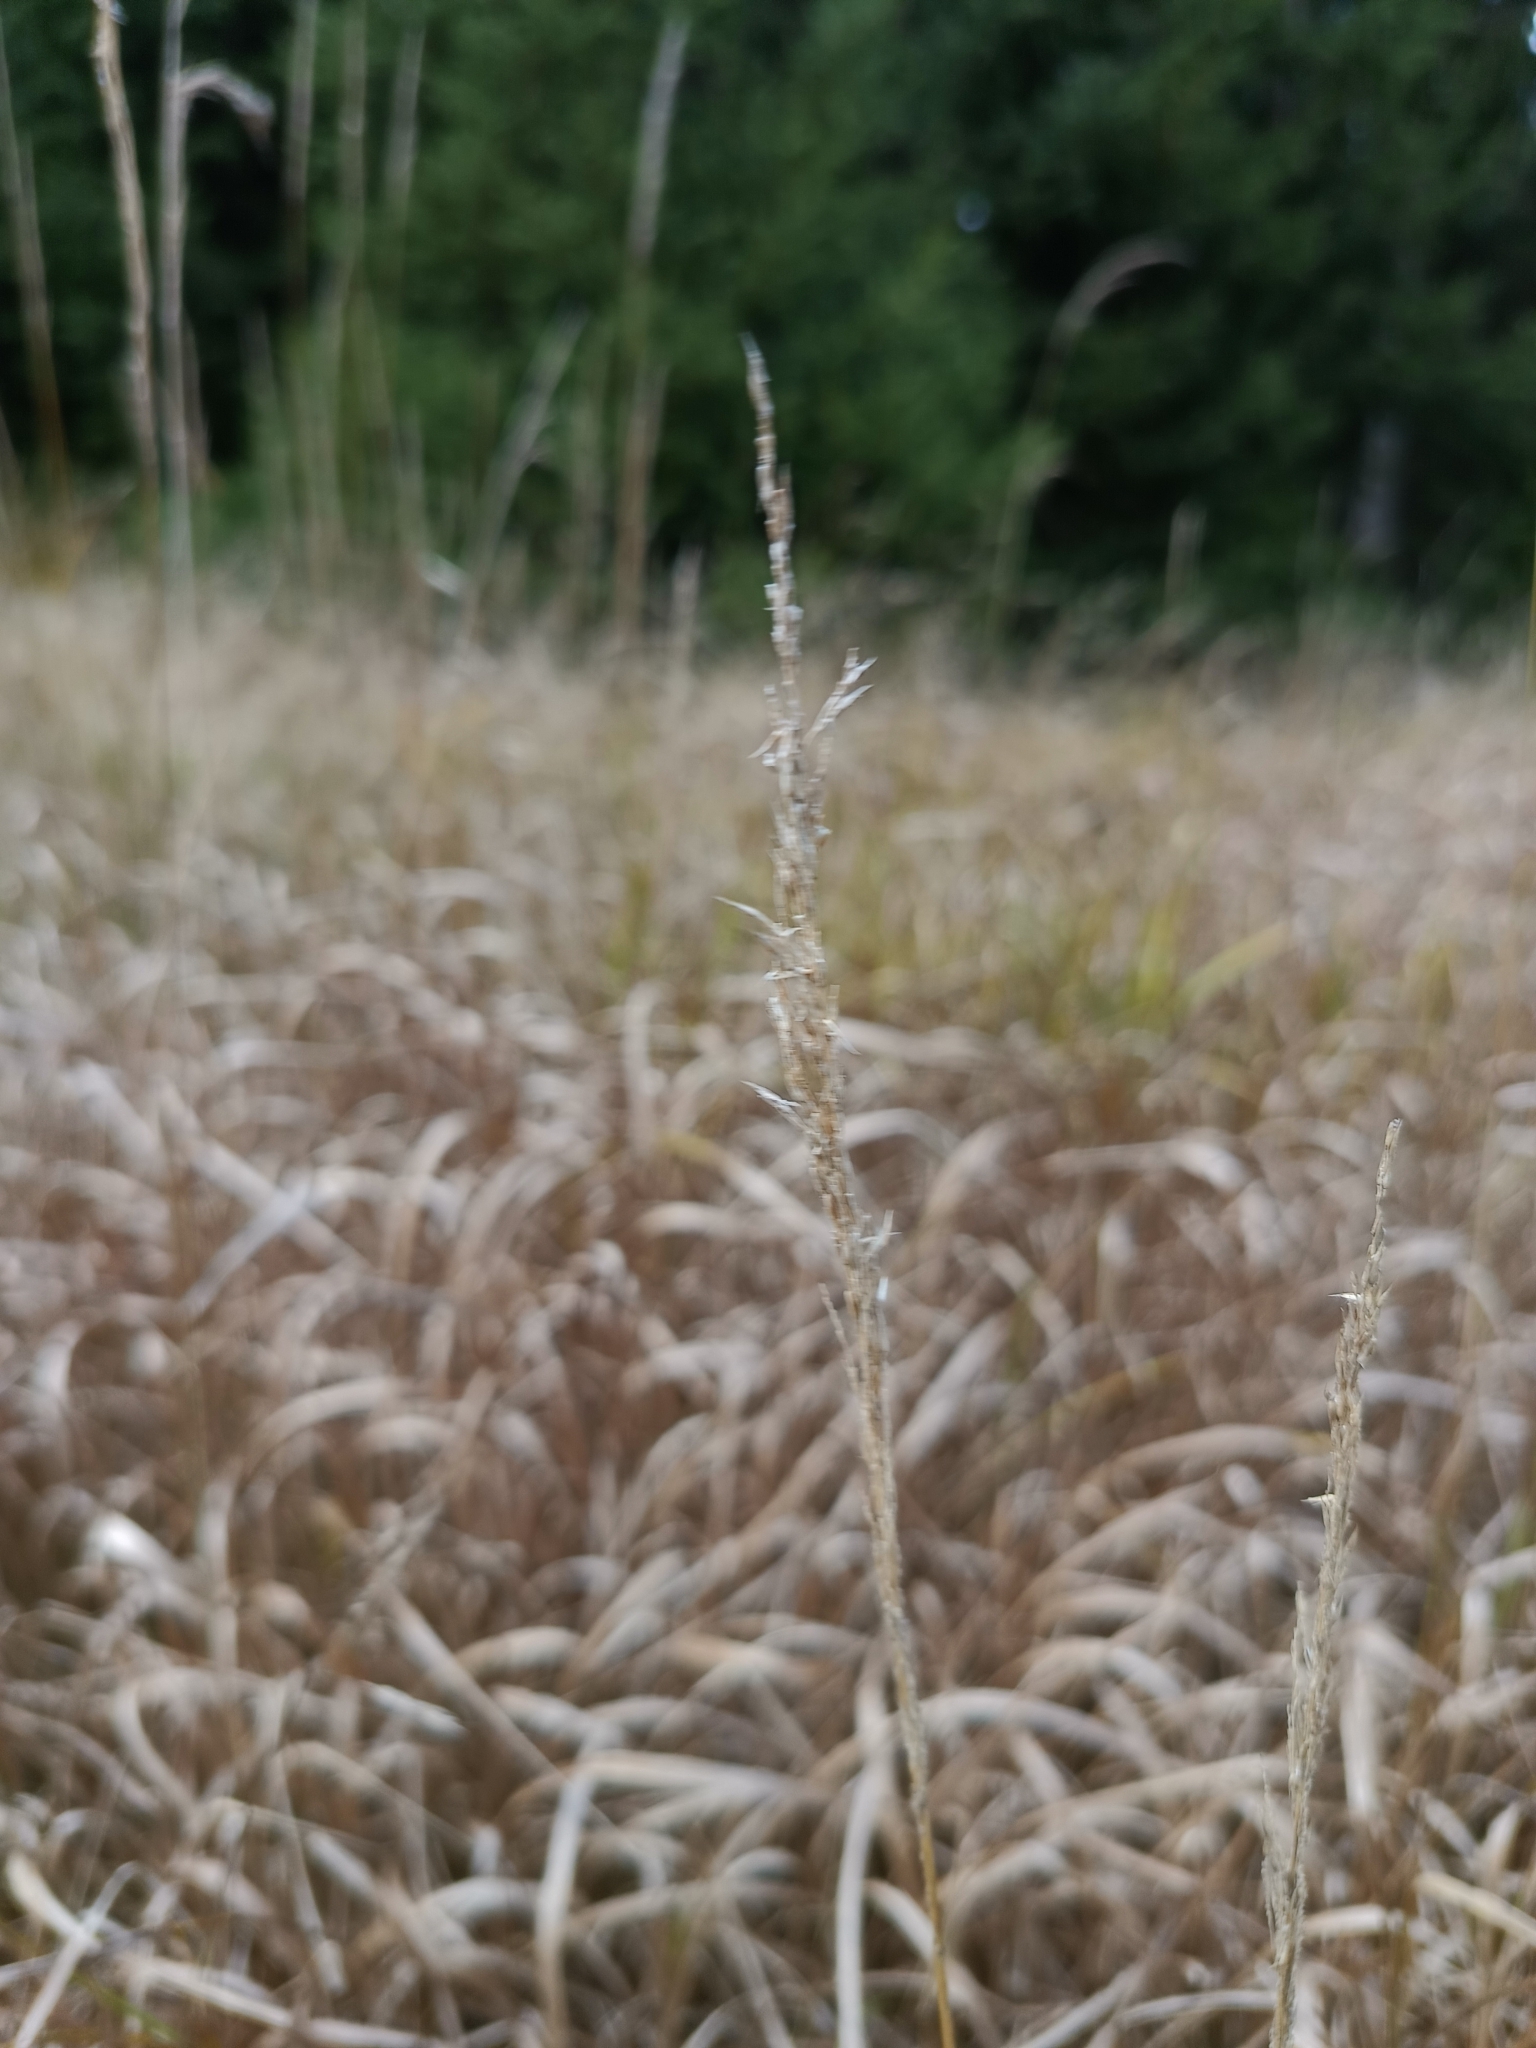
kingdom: Plantae
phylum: Tracheophyta
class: Liliopsida
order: Poales
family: Poaceae
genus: Calamagrostis
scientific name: Calamagrostis villosa
